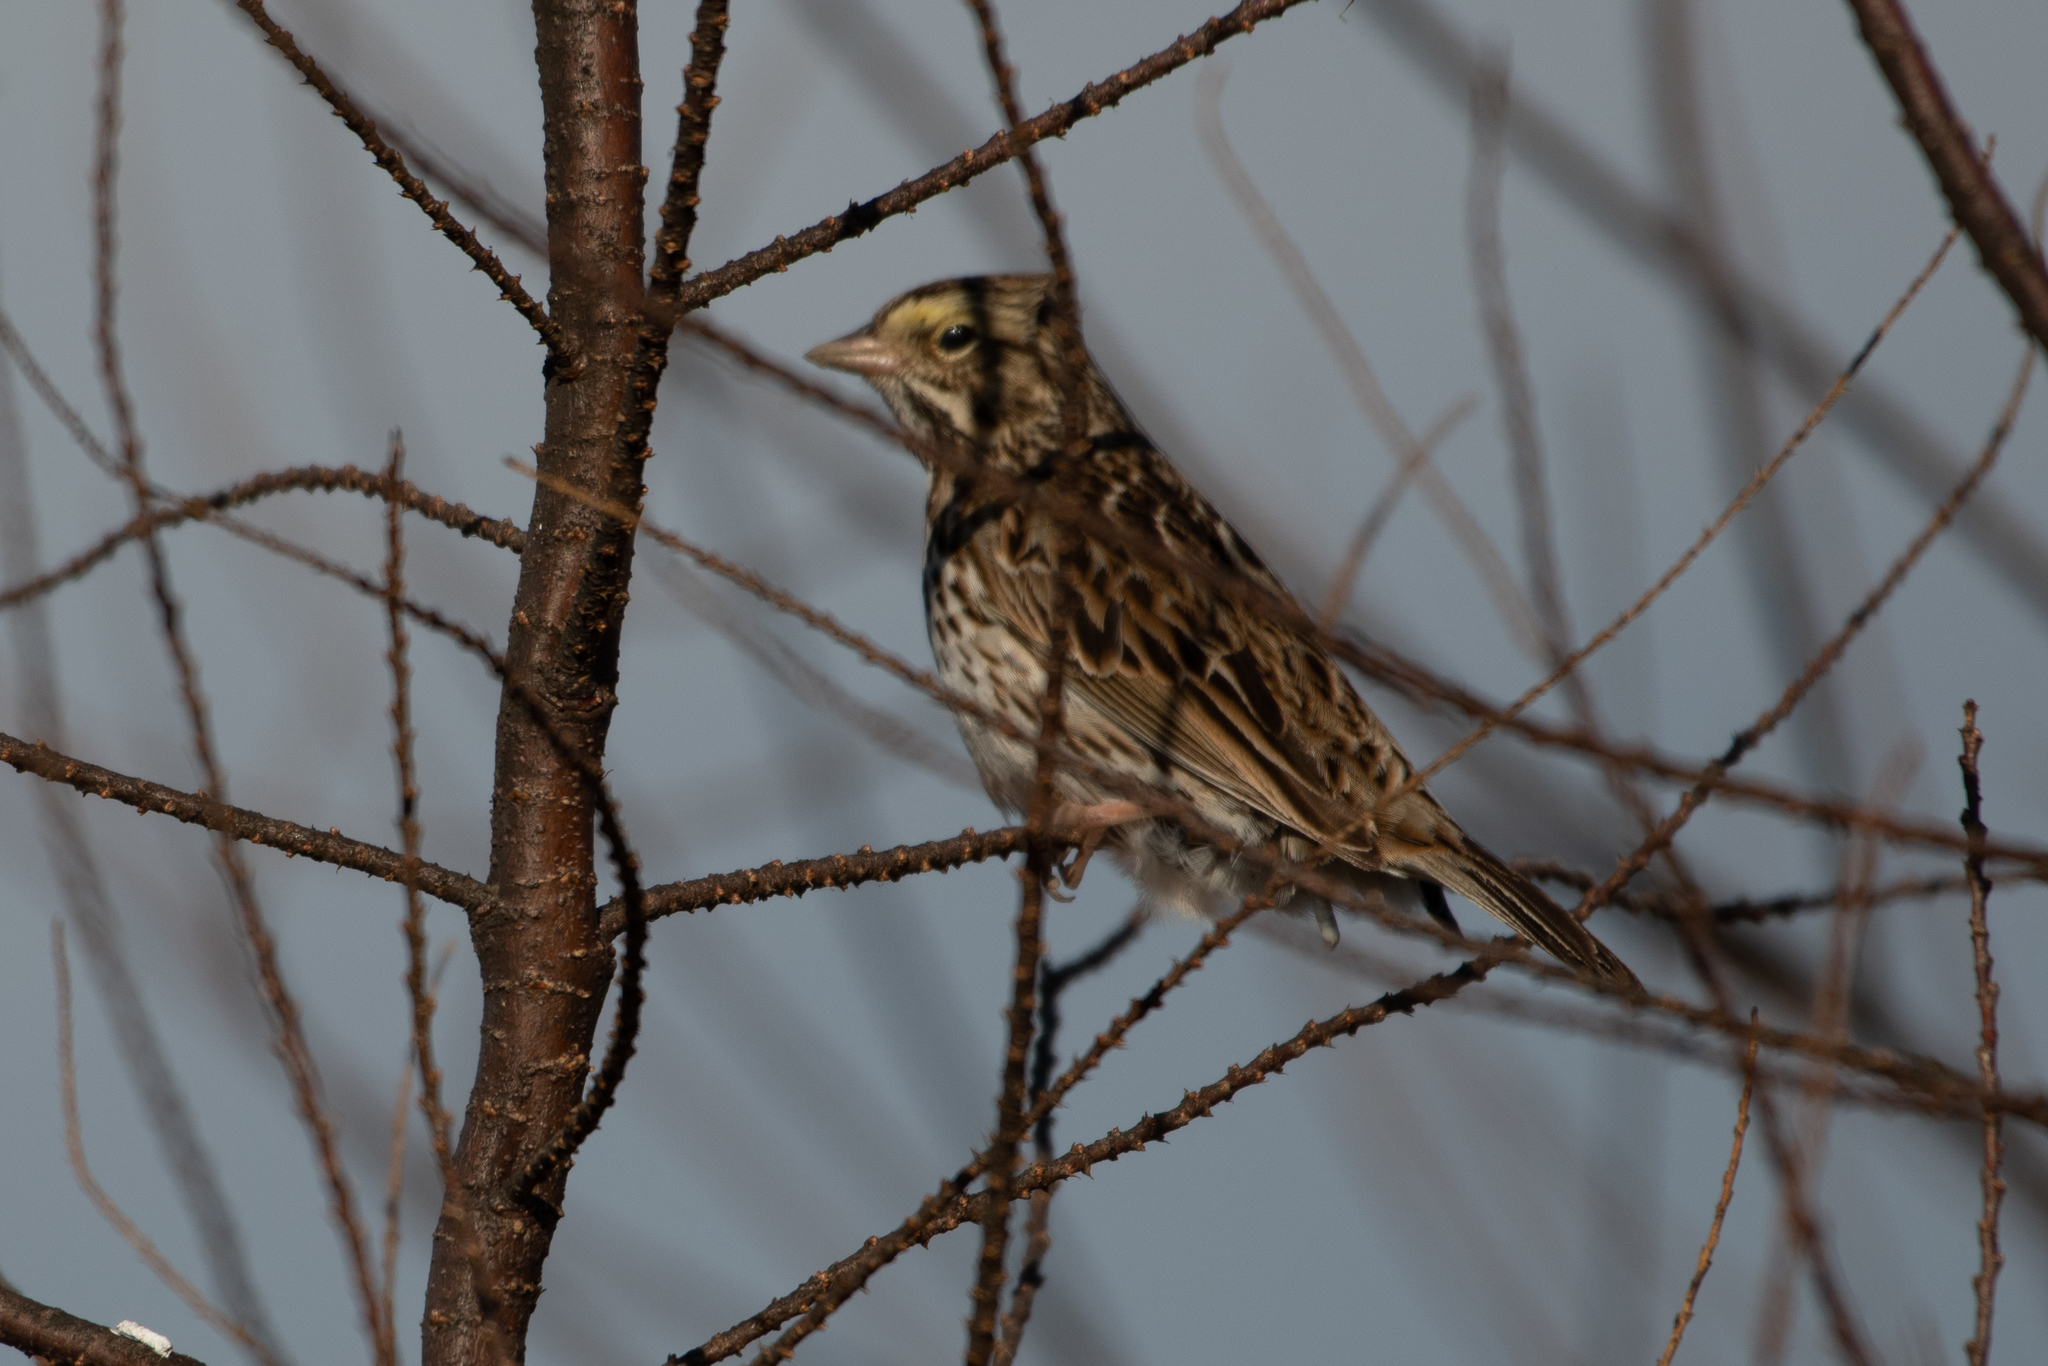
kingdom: Animalia
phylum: Chordata
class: Aves
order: Passeriformes
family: Passerellidae
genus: Passerculus
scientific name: Passerculus sandwichensis
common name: Savannah sparrow
